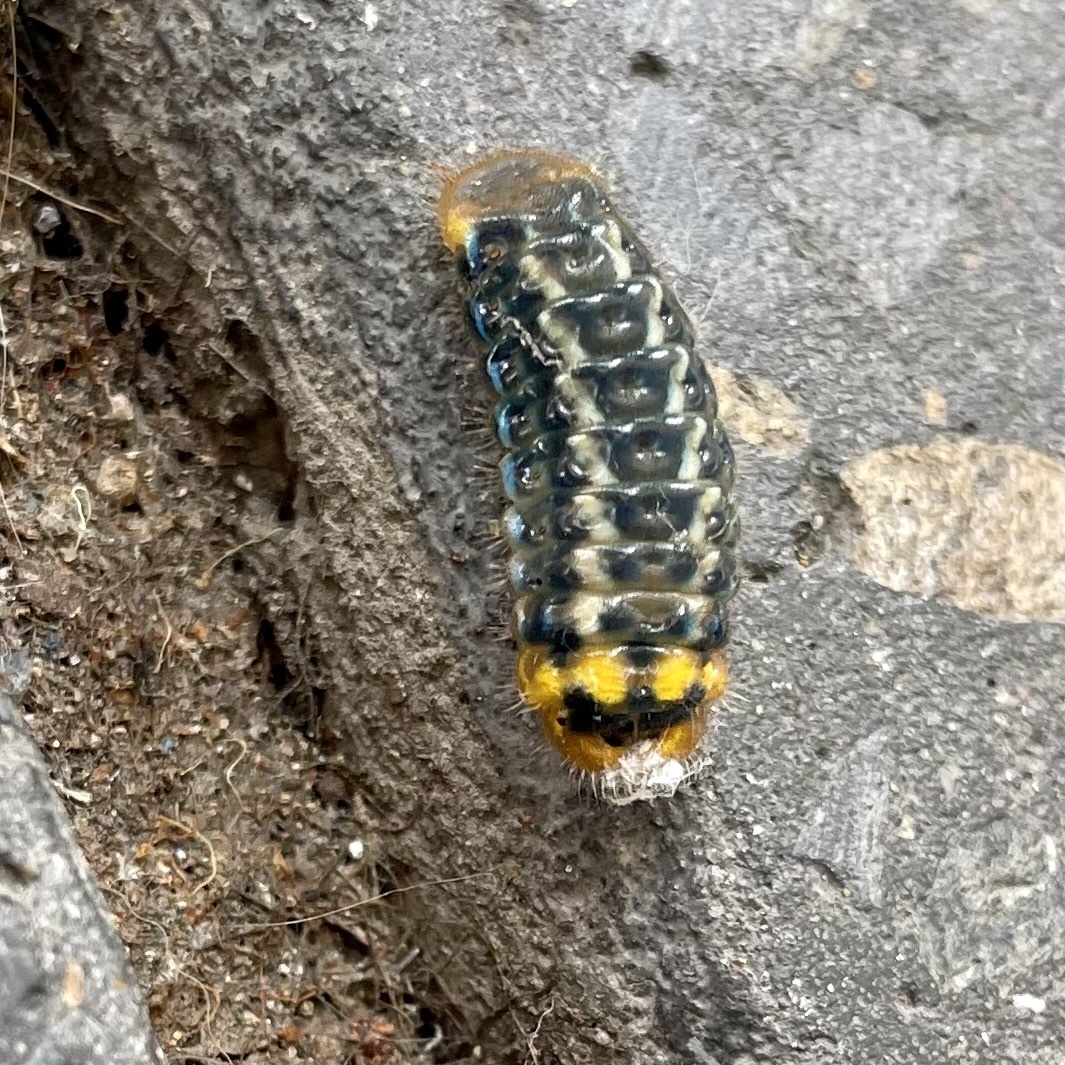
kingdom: Animalia
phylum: Arthropoda
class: Insecta
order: Lepidoptera
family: Lycaenidae
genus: Deudorix
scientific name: Deudorix diovis
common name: Bright cornelian
